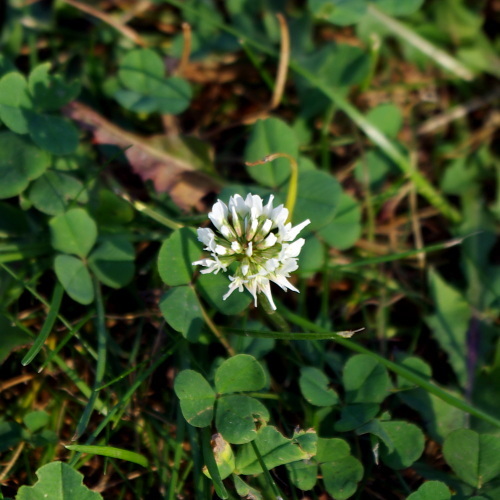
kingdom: Plantae
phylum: Tracheophyta
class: Magnoliopsida
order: Fabales
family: Fabaceae
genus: Trifolium
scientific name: Trifolium repens
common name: White clover
